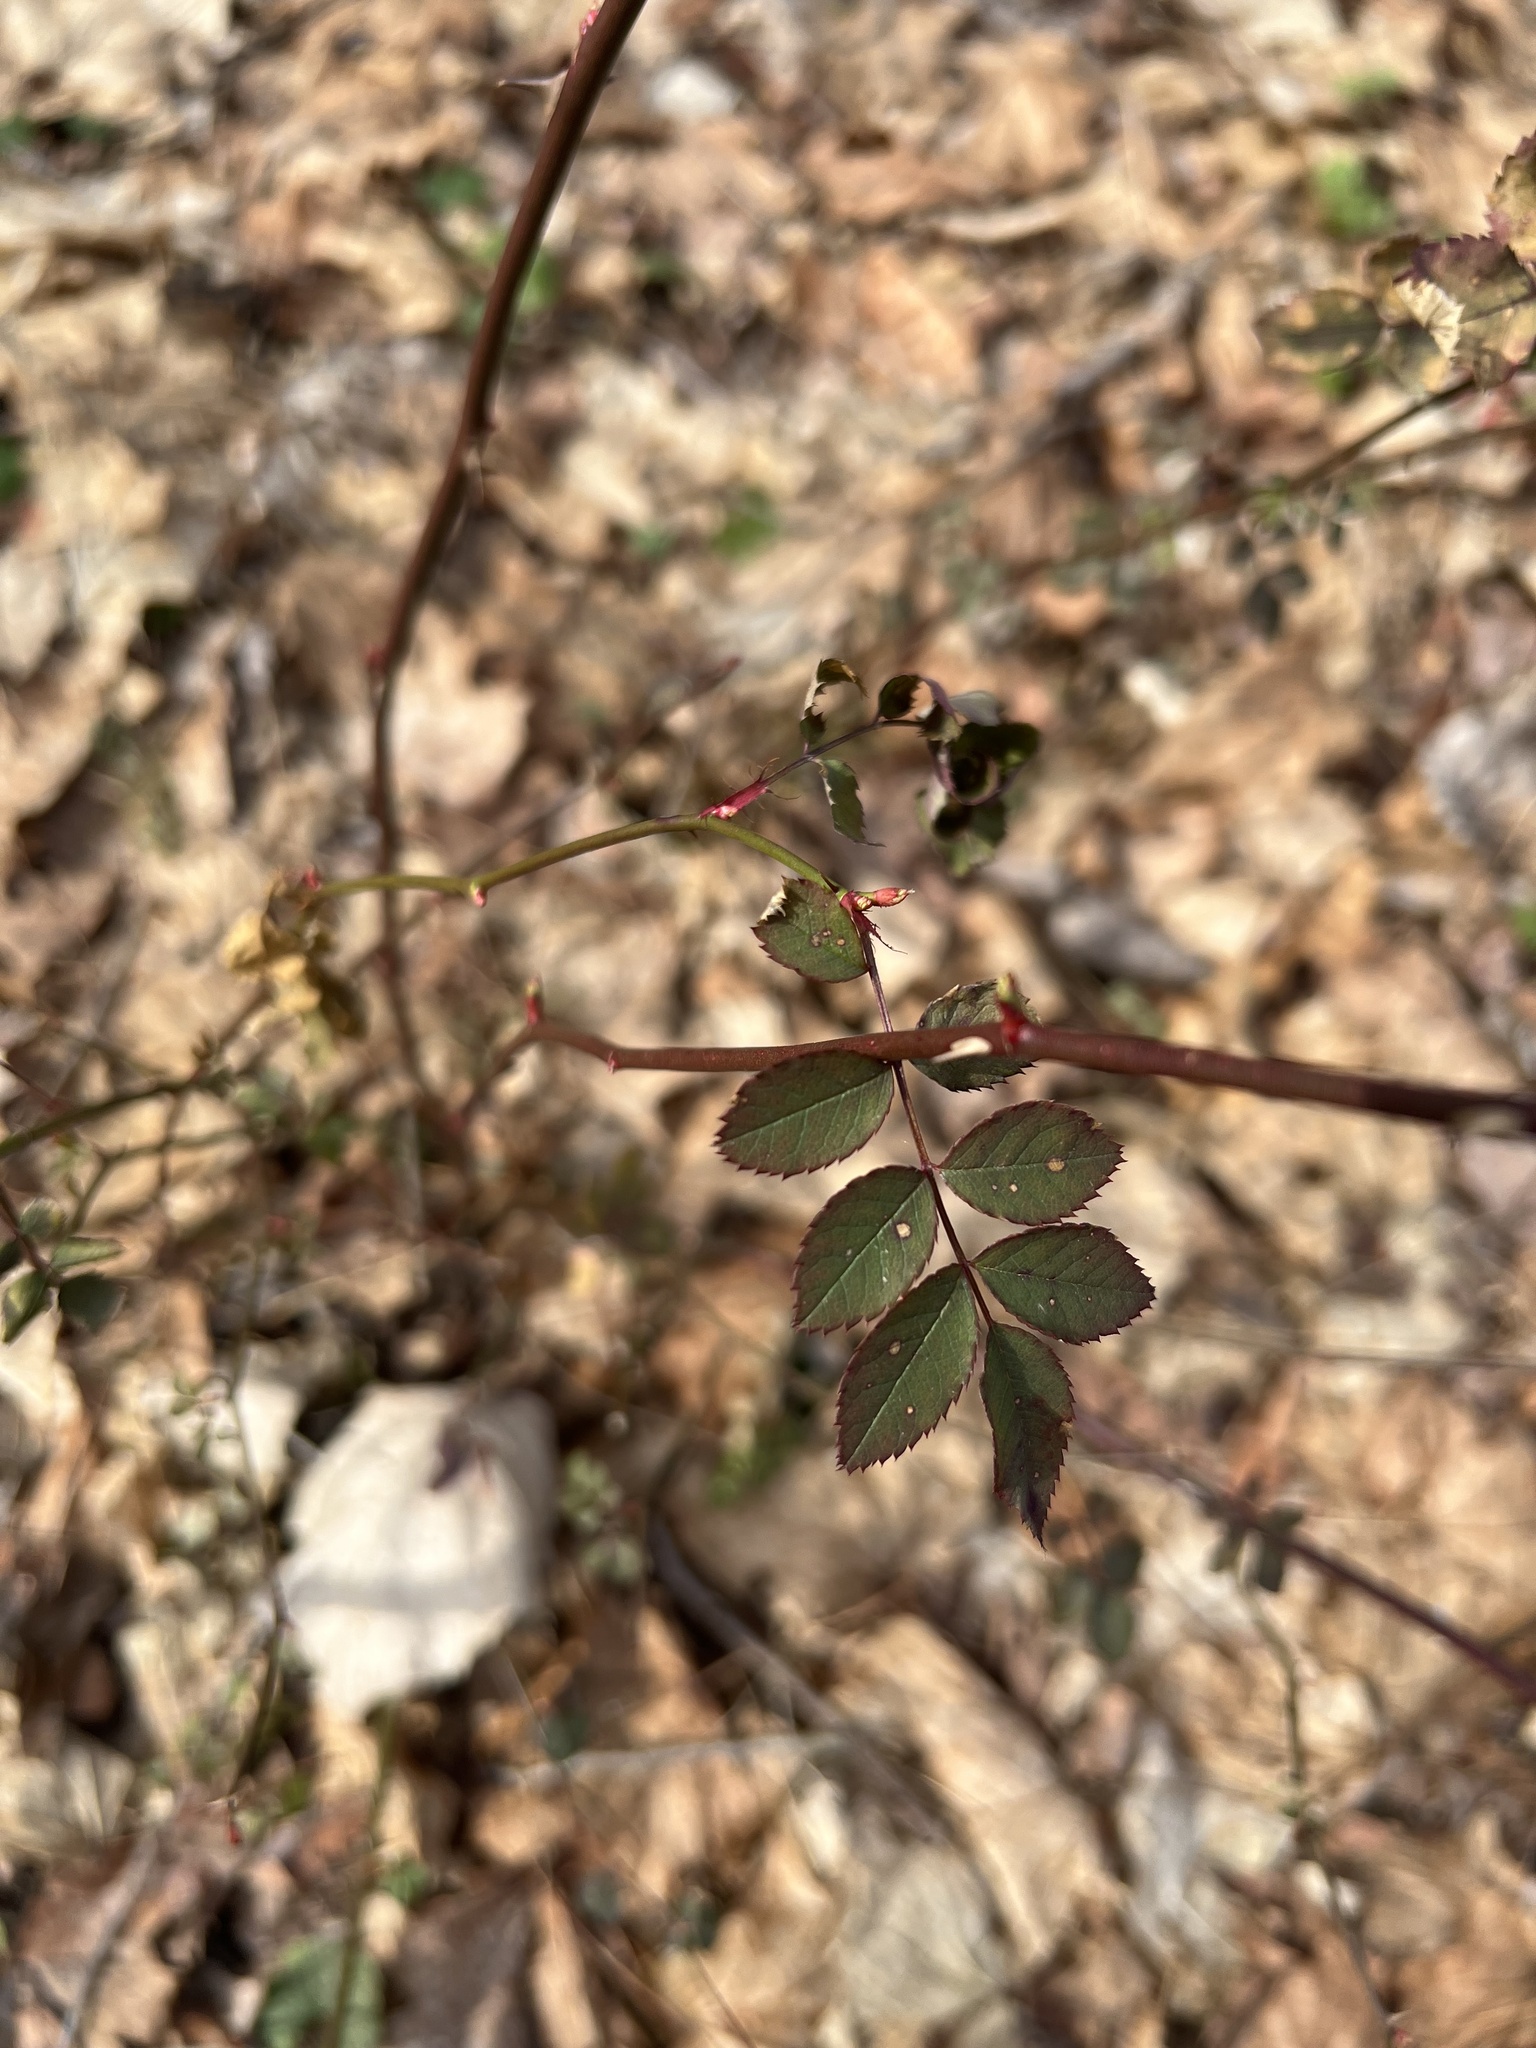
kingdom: Plantae
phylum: Tracheophyta
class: Magnoliopsida
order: Rosales
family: Rosaceae
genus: Rosa
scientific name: Rosa multiflora
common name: Multiflora rose
